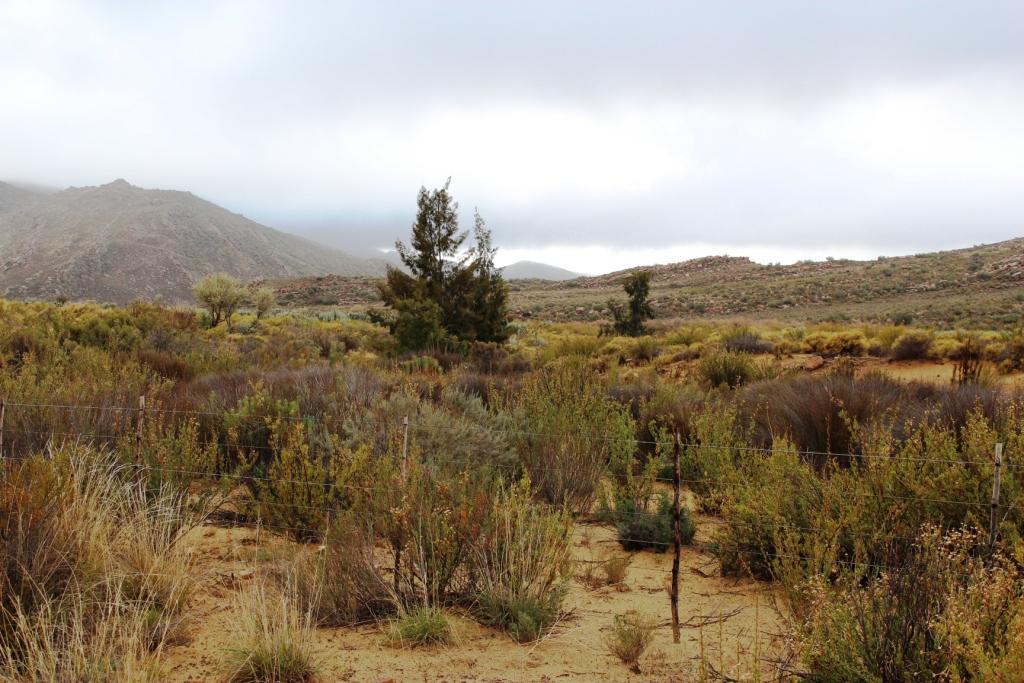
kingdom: Plantae
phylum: Tracheophyta
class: Magnoliopsida
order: Fagales
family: Casuarinaceae
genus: Casuarina
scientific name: Casuarina cunninghamiana
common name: River sheoak
